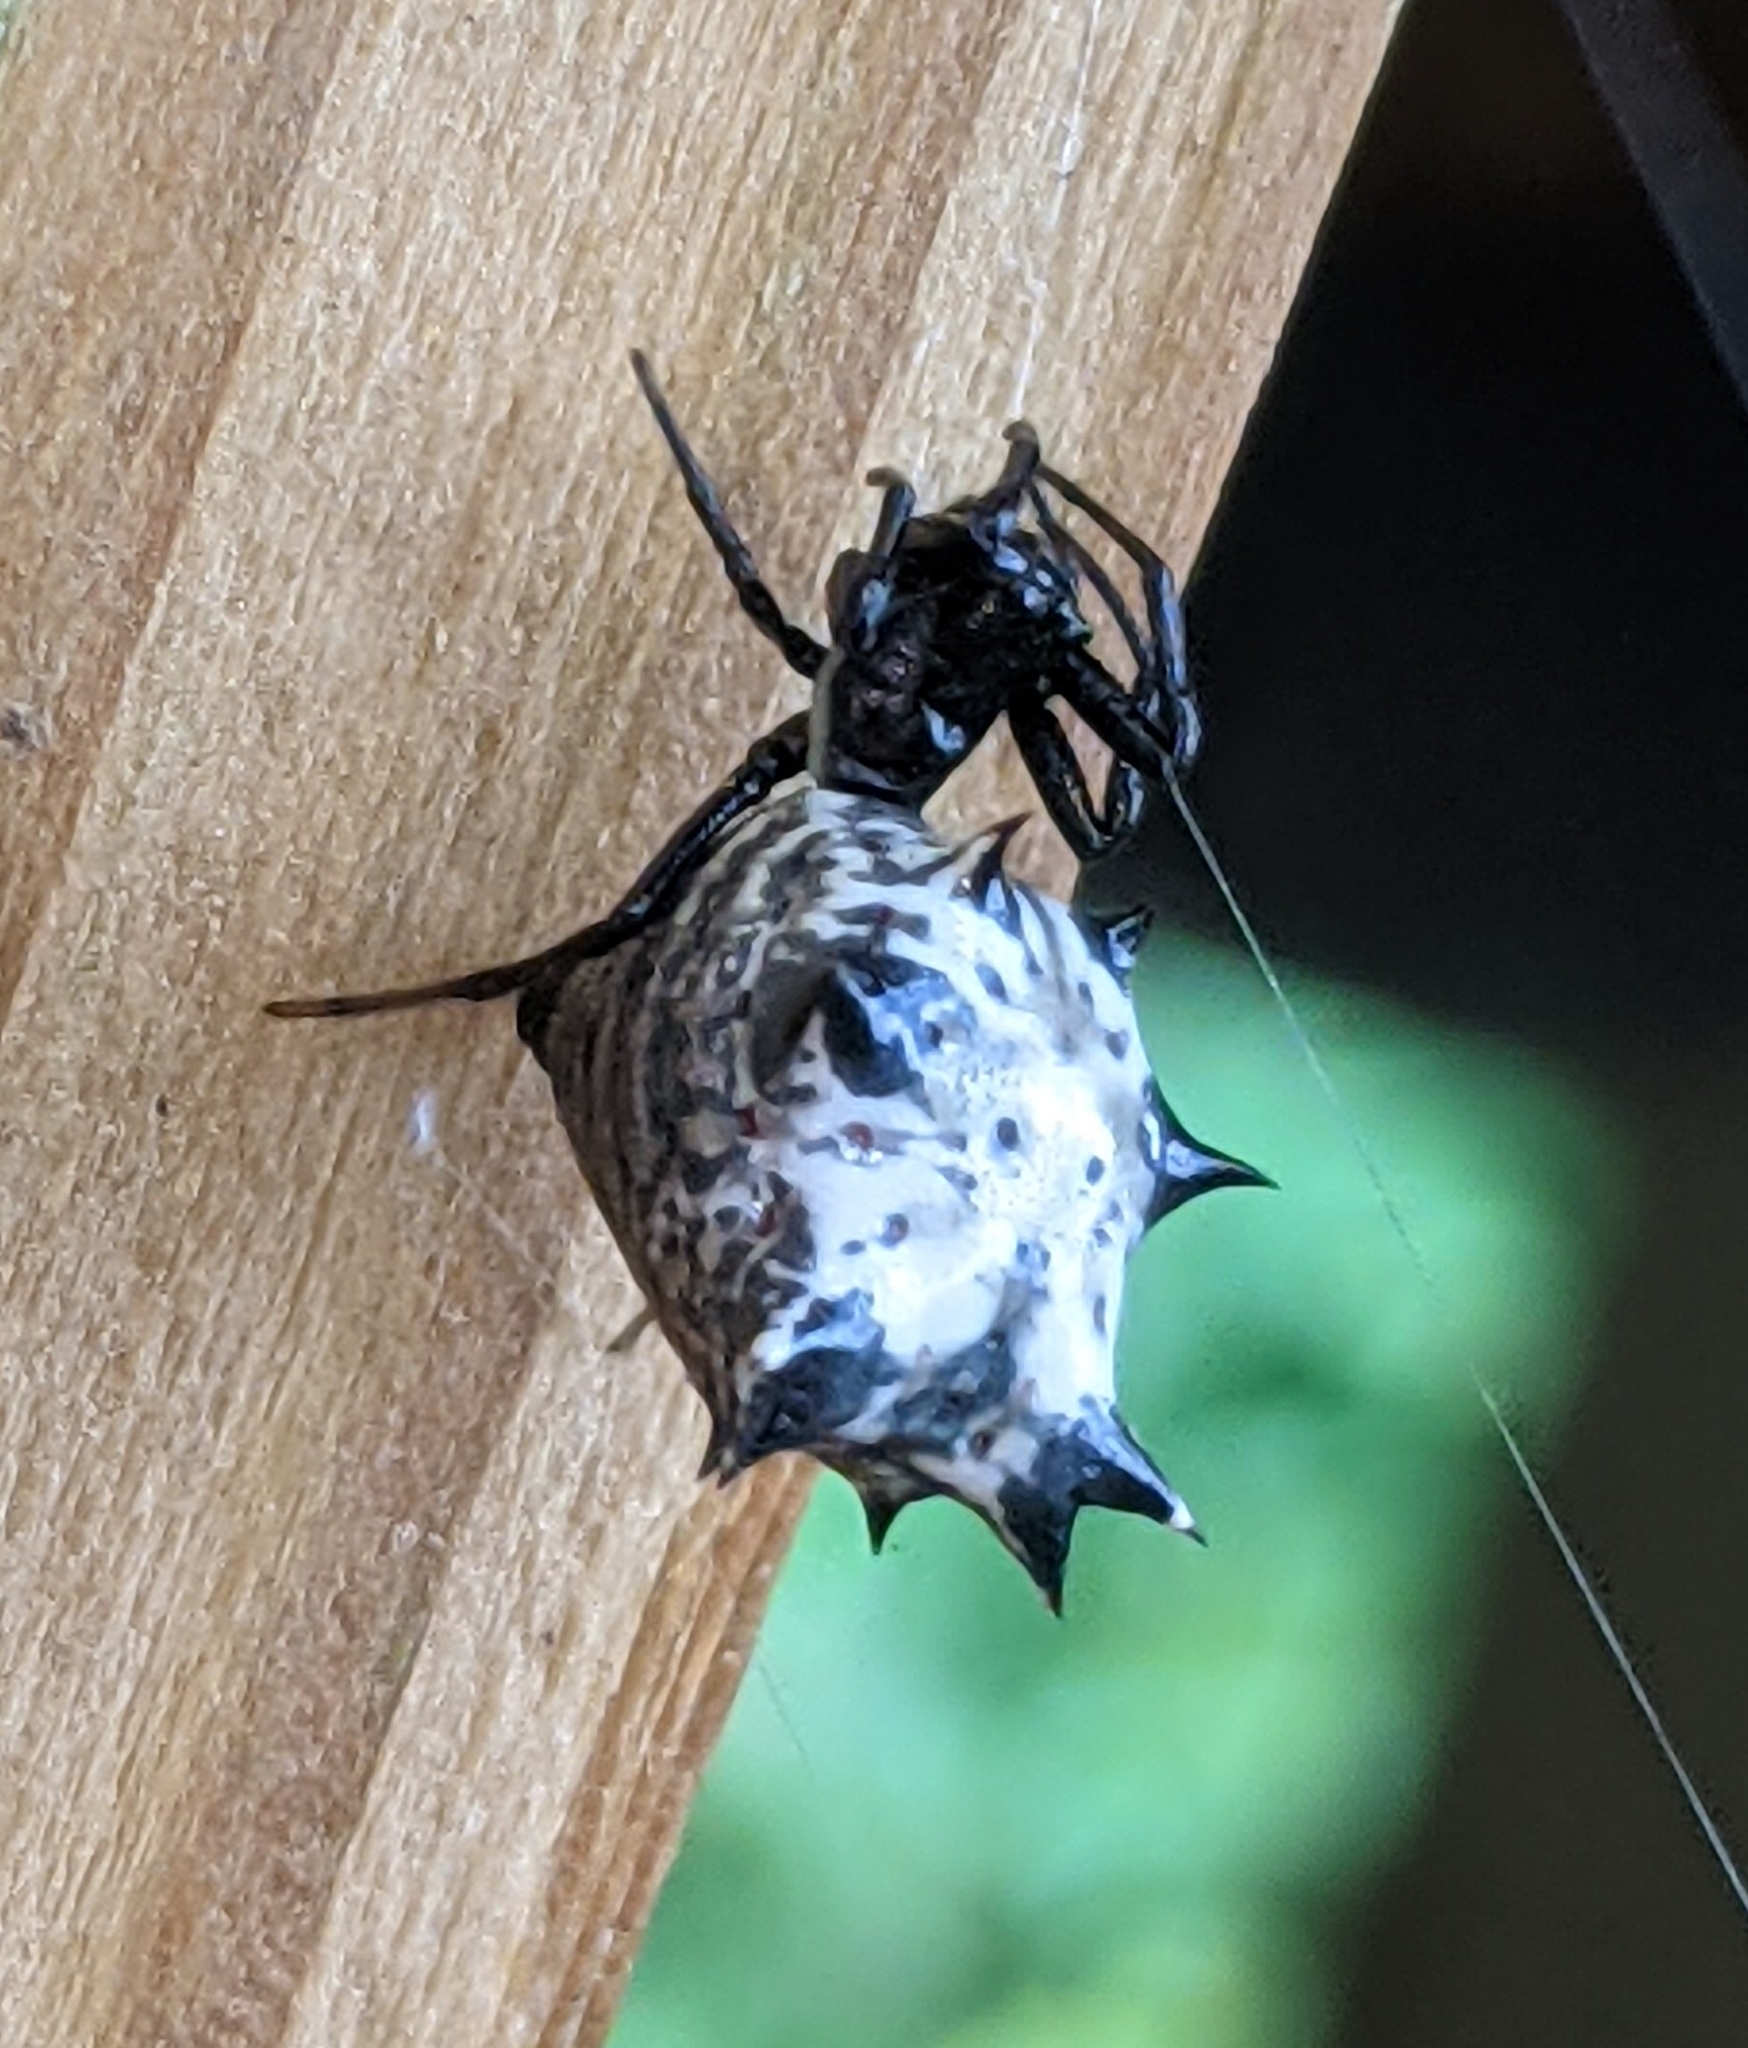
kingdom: Animalia
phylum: Arthropoda
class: Arachnida
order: Araneae
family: Araneidae
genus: Micrathena
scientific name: Micrathena gracilis
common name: Orb weavers
